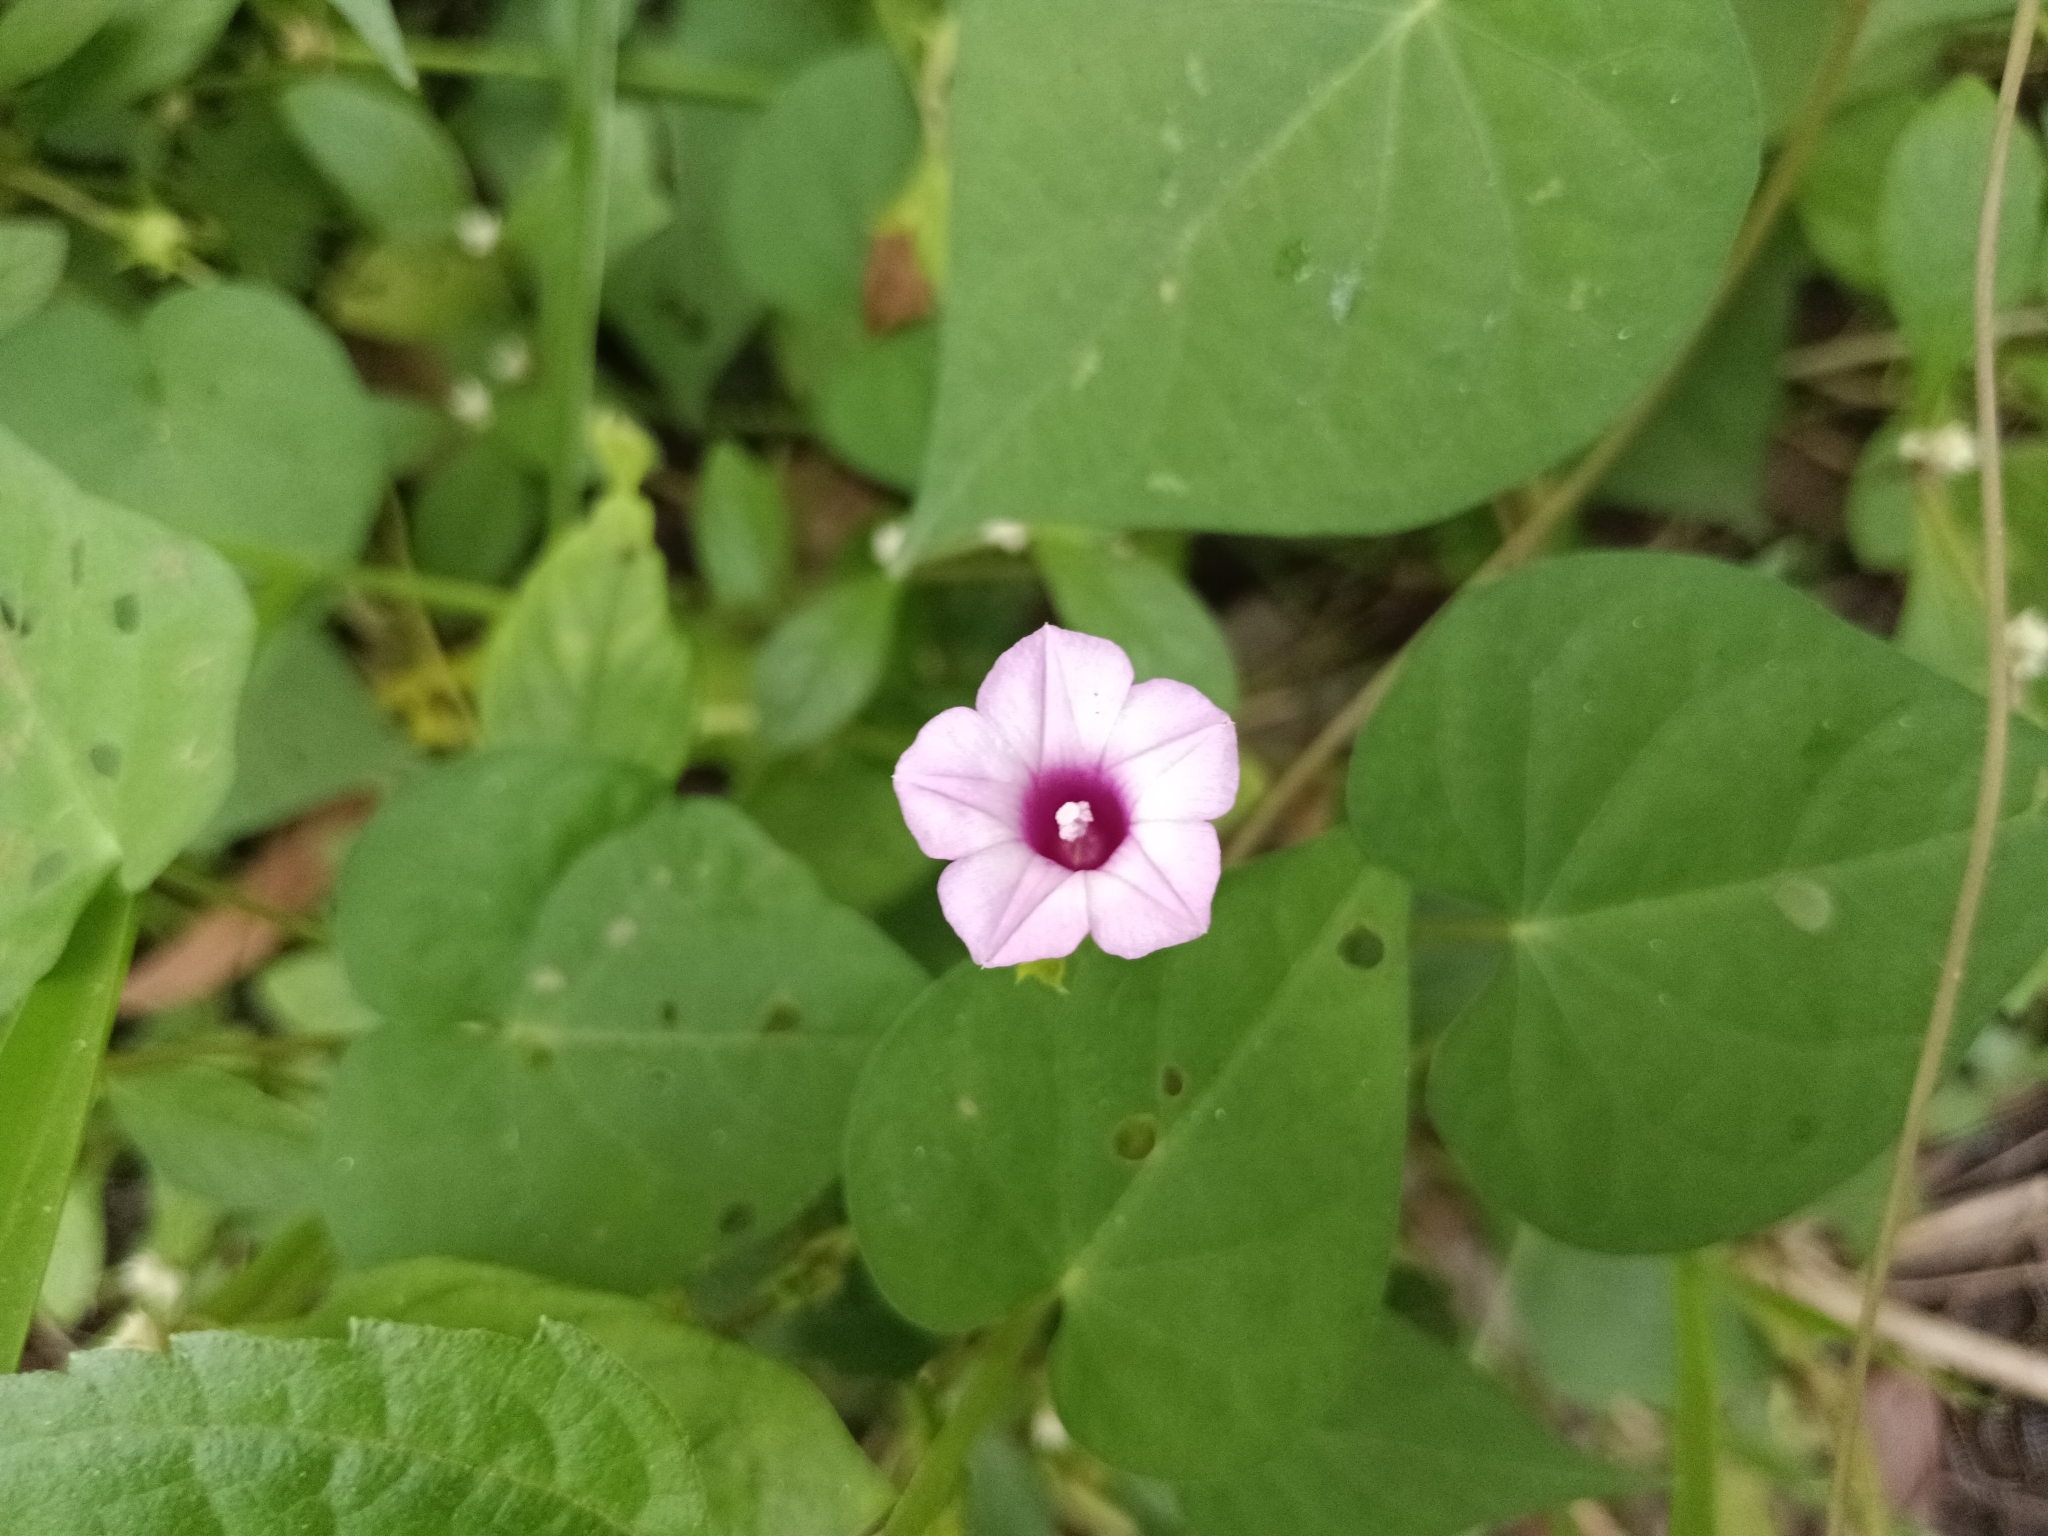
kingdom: Plantae
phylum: Tracheophyta
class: Magnoliopsida
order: Solanales
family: Convolvulaceae
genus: Ipomoea
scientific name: Ipomoea triloba
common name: Little-bell
